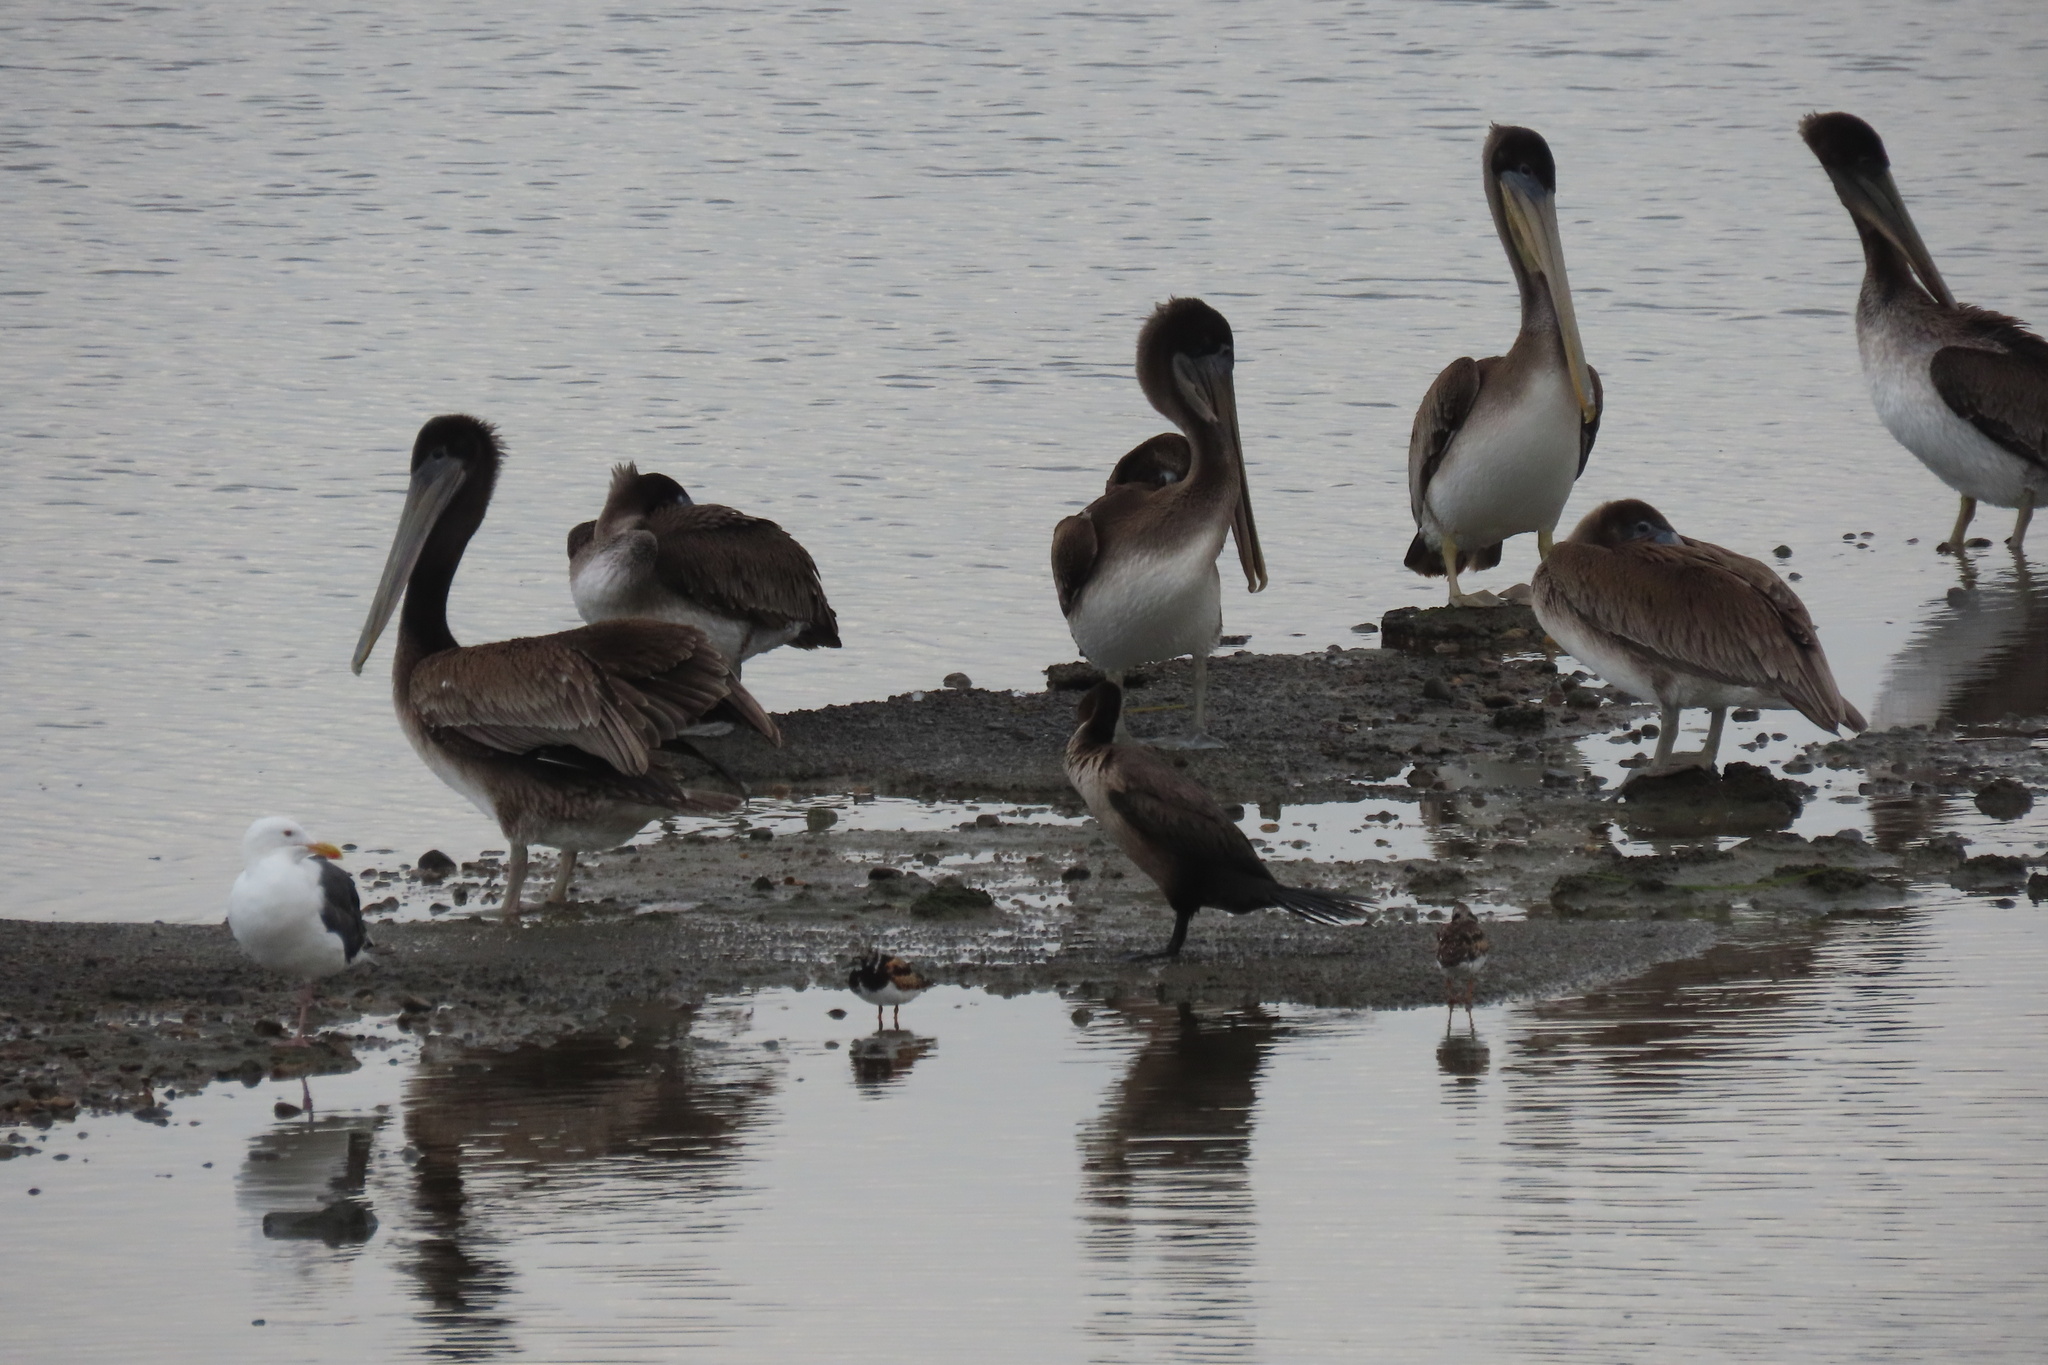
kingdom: Animalia
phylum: Chordata
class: Aves
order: Pelecaniformes
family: Pelecanidae
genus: Pelecanus
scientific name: Pelecanus occidentalis
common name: Brown pelican
